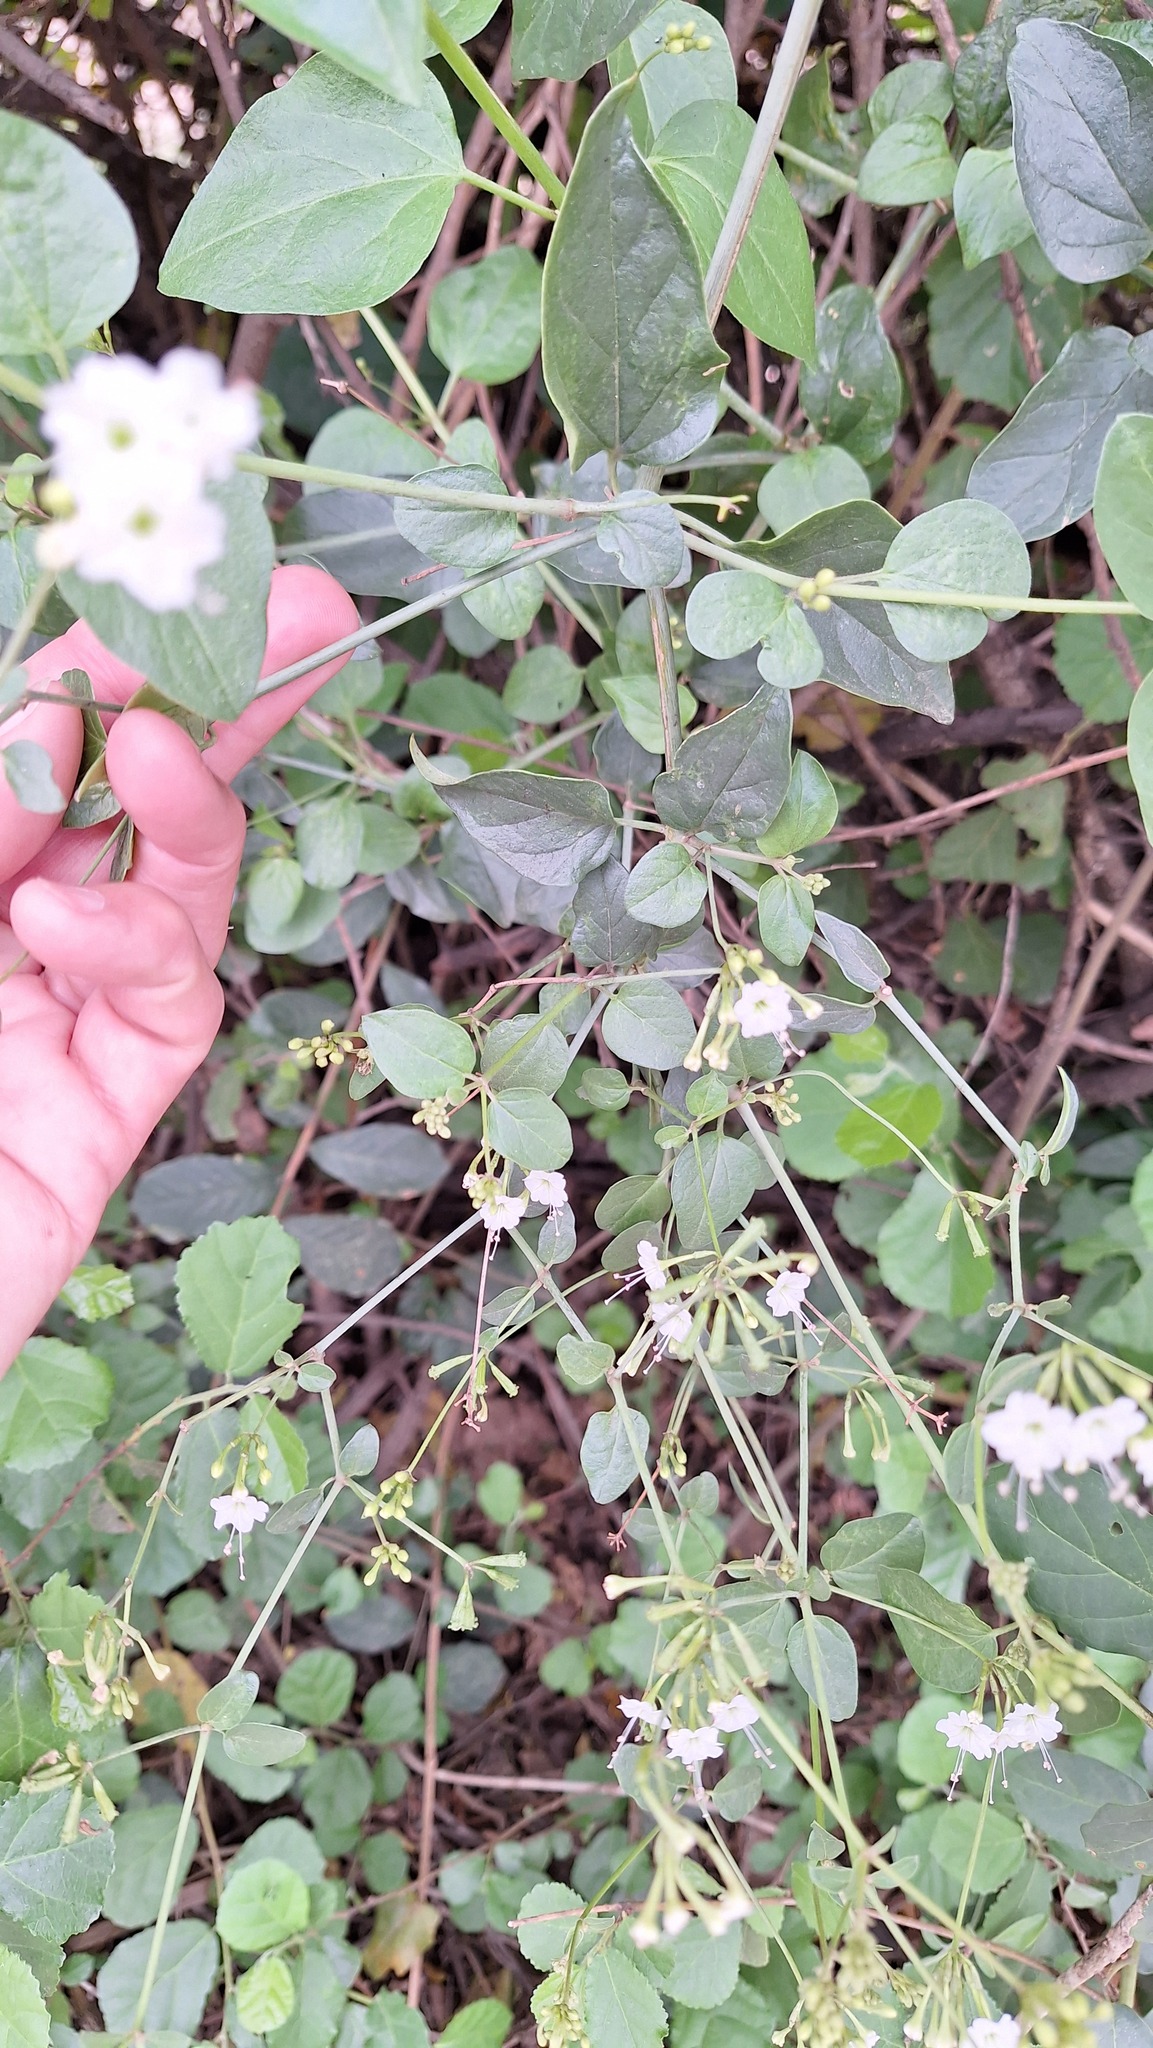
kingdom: Plantae
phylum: Tracheophyta
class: Magnoliopsida
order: Caryophyllales
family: Nyctaginaceae
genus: Commicarpus
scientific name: Commicarpus plumbagineus
